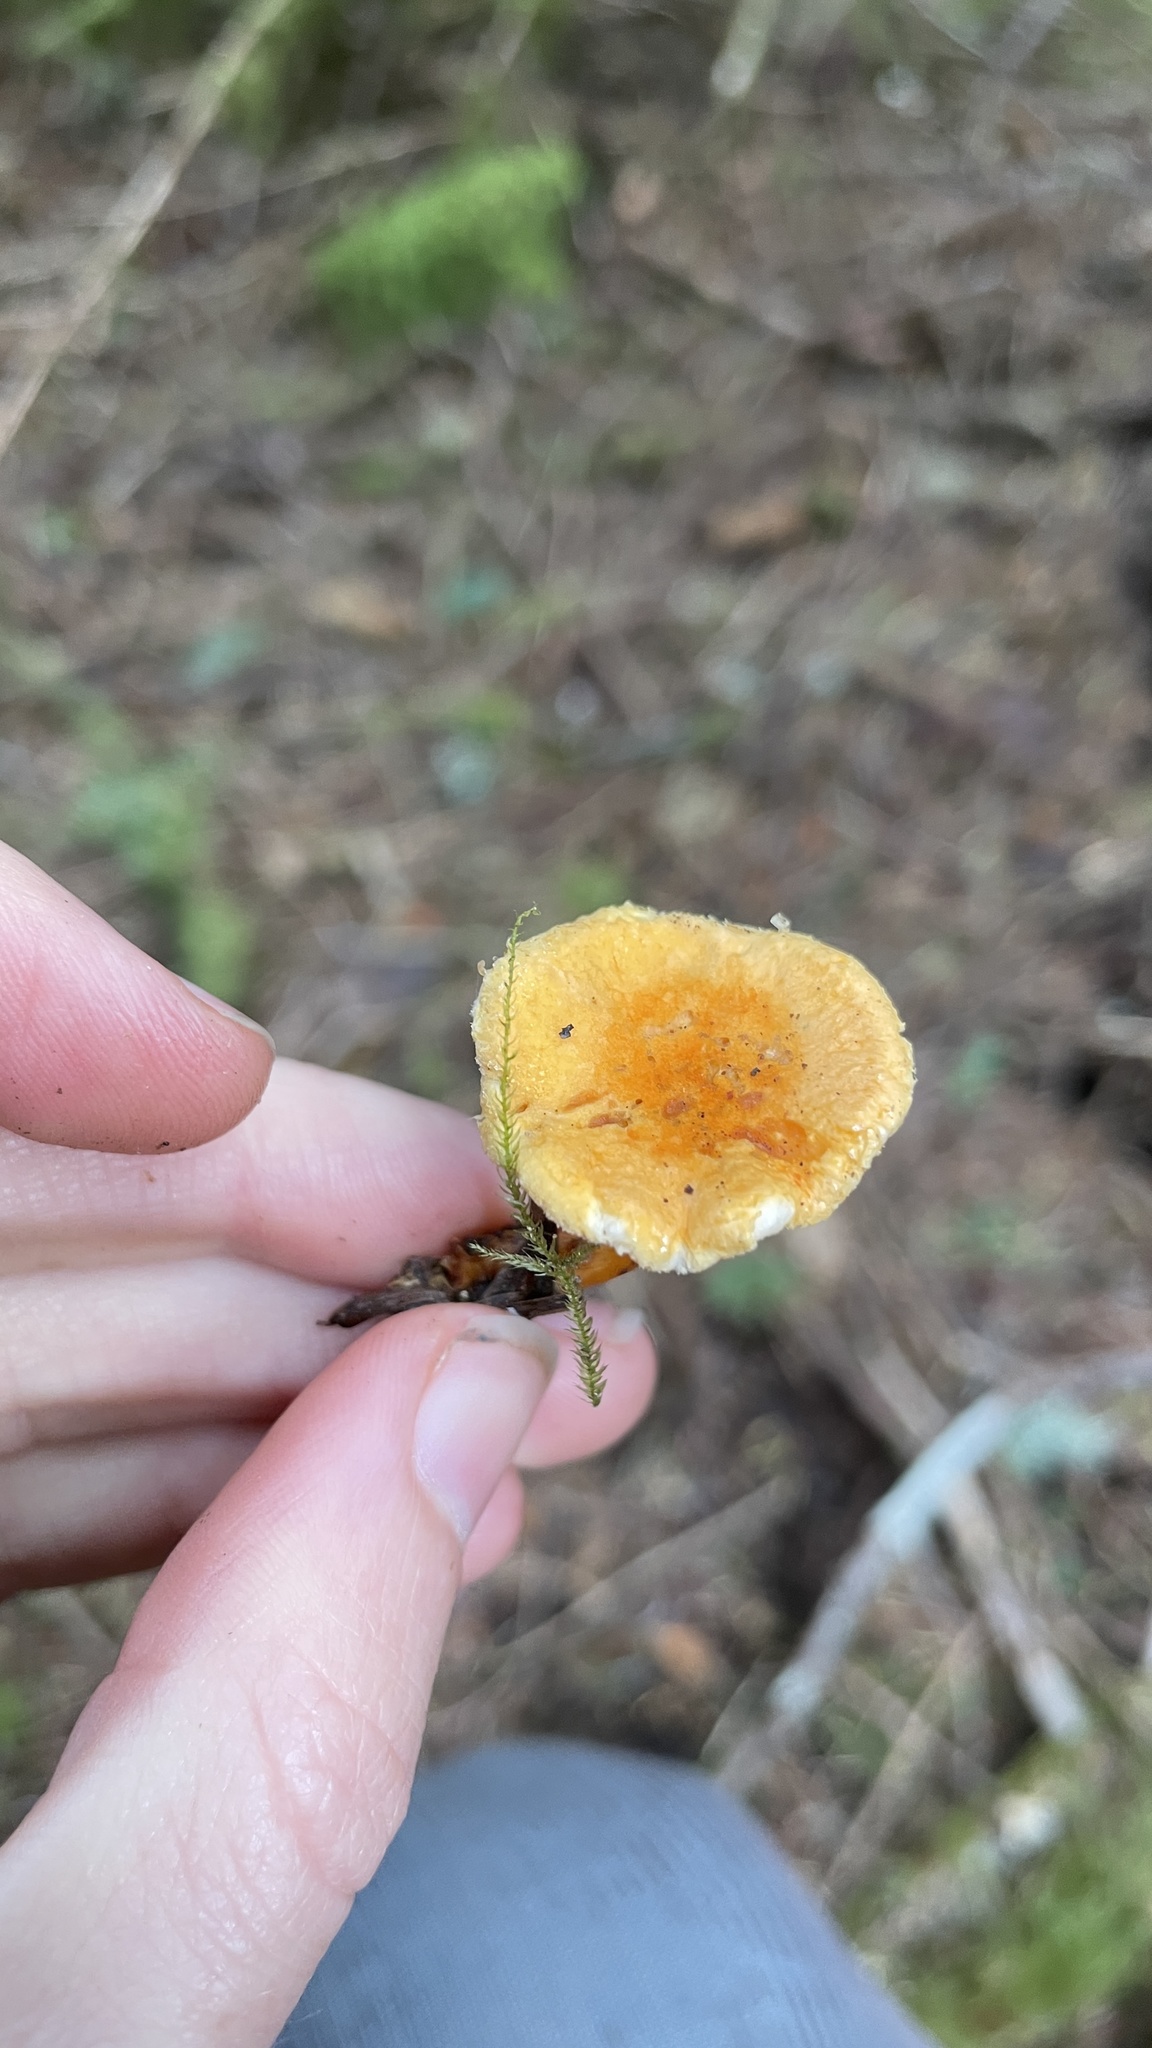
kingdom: Fungi
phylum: Basidiomycota
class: Agaricomycetes
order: Boletales
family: Hygrophoropsidaceae
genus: Hygrophoropsis
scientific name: Hygrophoropsis aurantiaca
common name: False chanterelle
